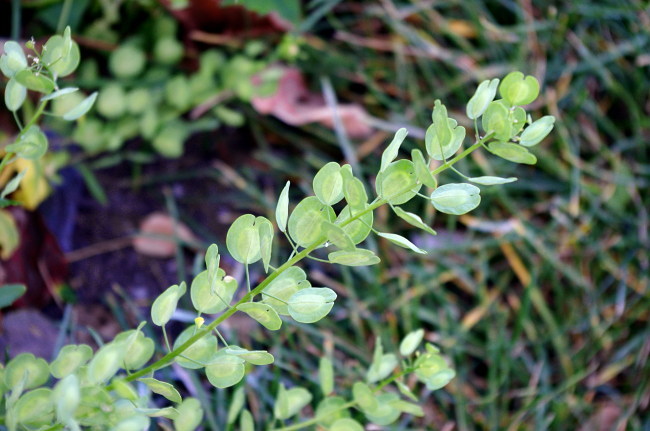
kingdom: Plantae
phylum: Tracheophyta
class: Magnoliopsida
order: Brassicales
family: Brassicaceae
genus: Thlaspi
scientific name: Thlaspi arvense
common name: Field pennycress
